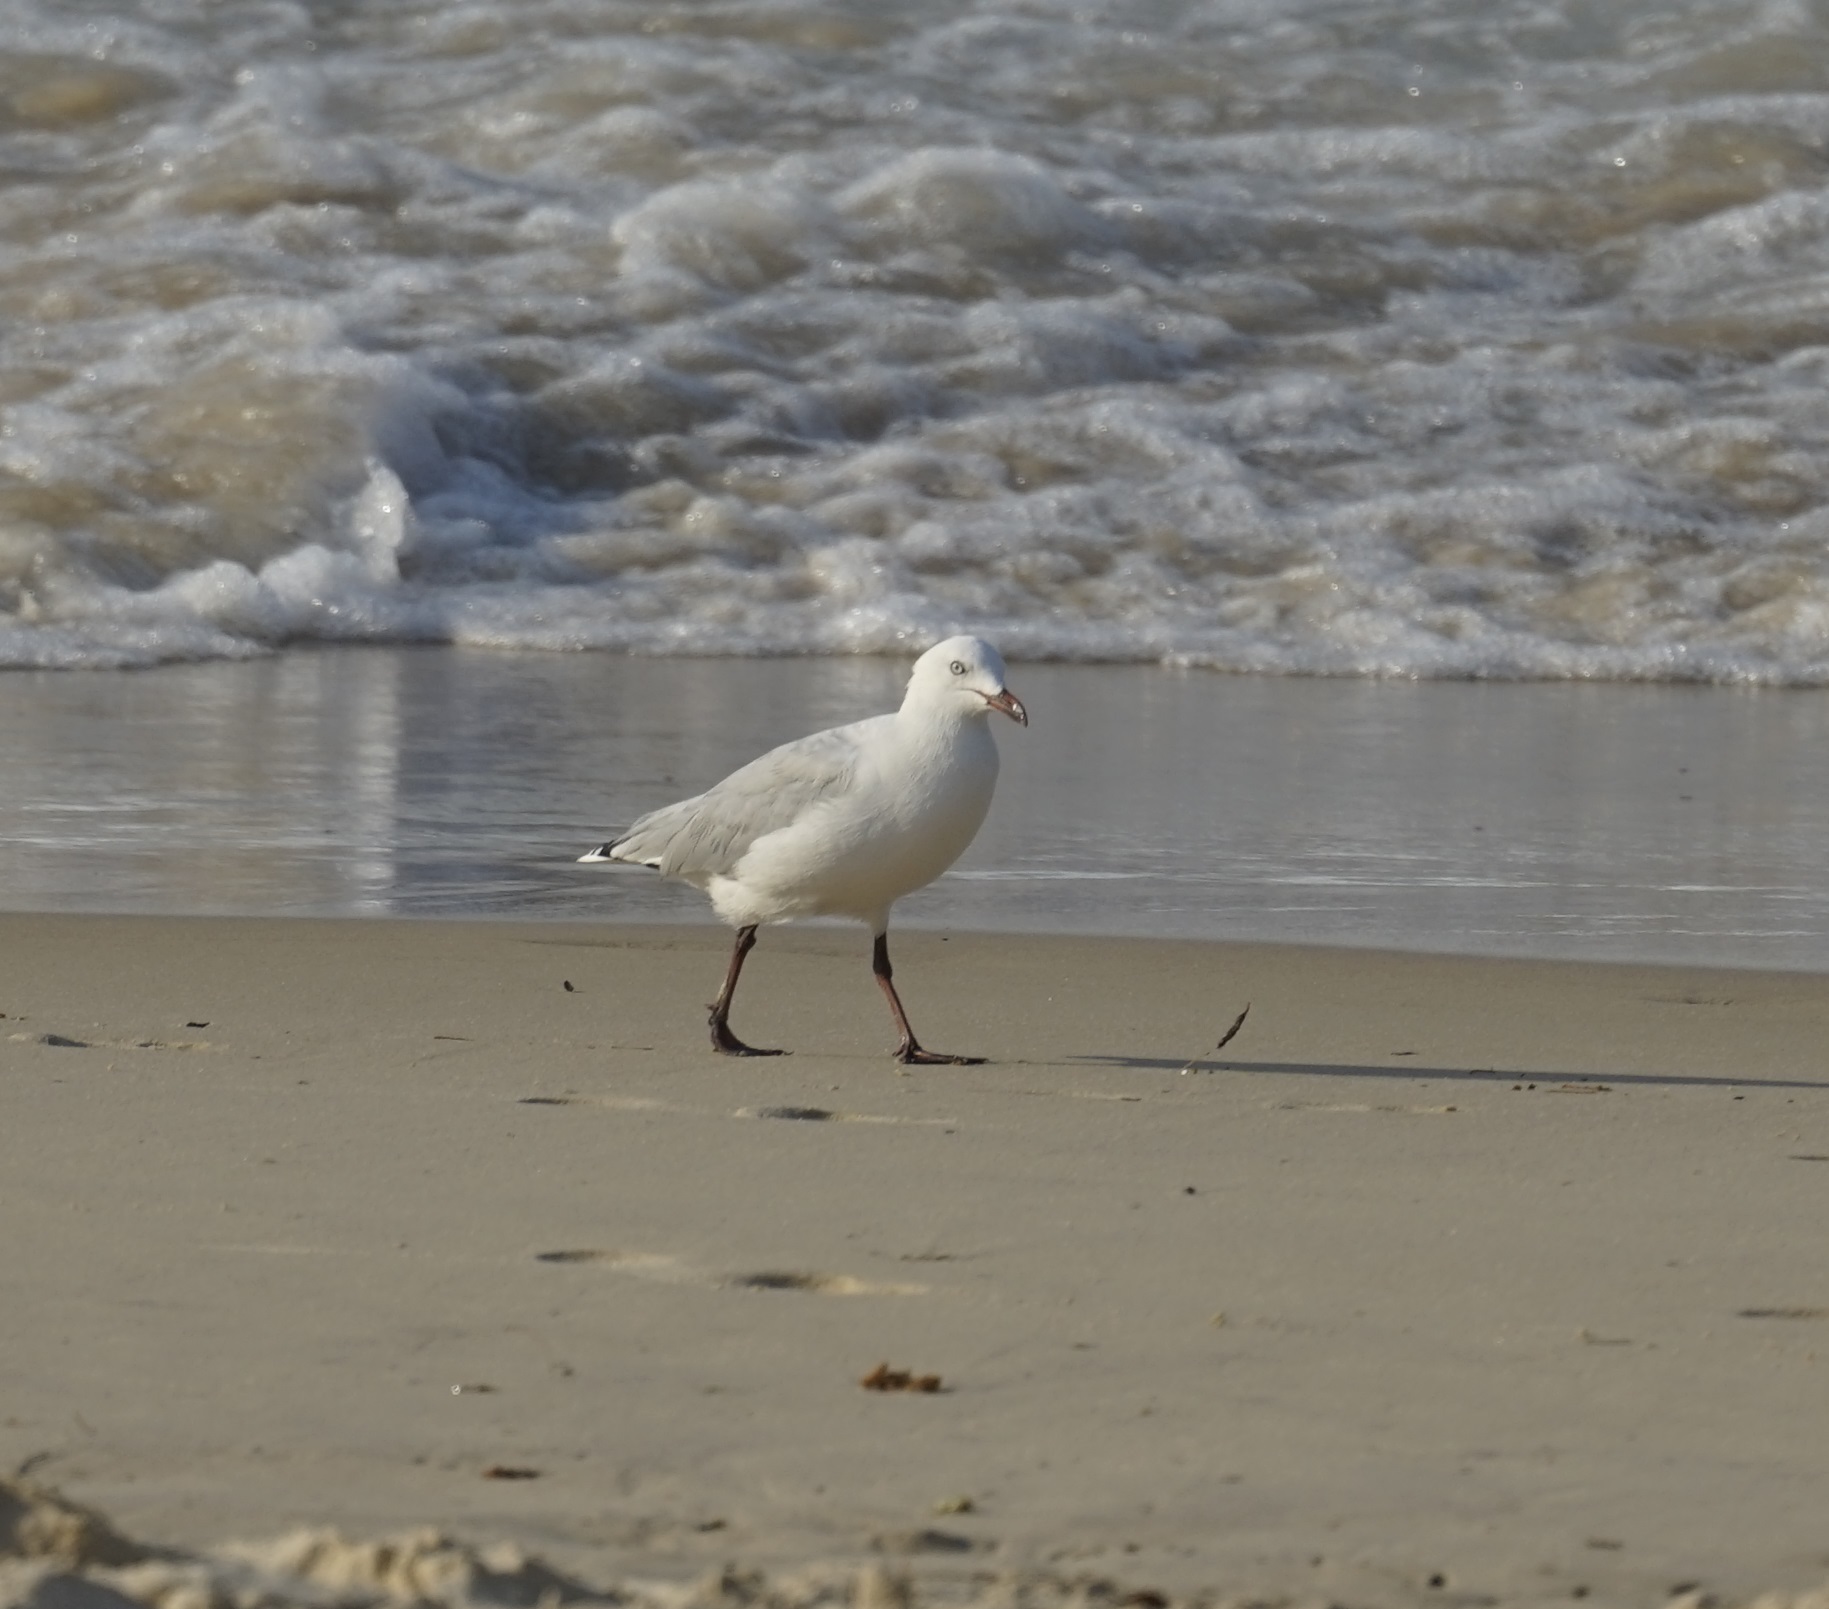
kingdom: Animalia
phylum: Chordata
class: Aves
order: Charadriiformes
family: Laridae
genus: Chroicocephalus
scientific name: Chroicocephalus novaehollandiae
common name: Silver gull
